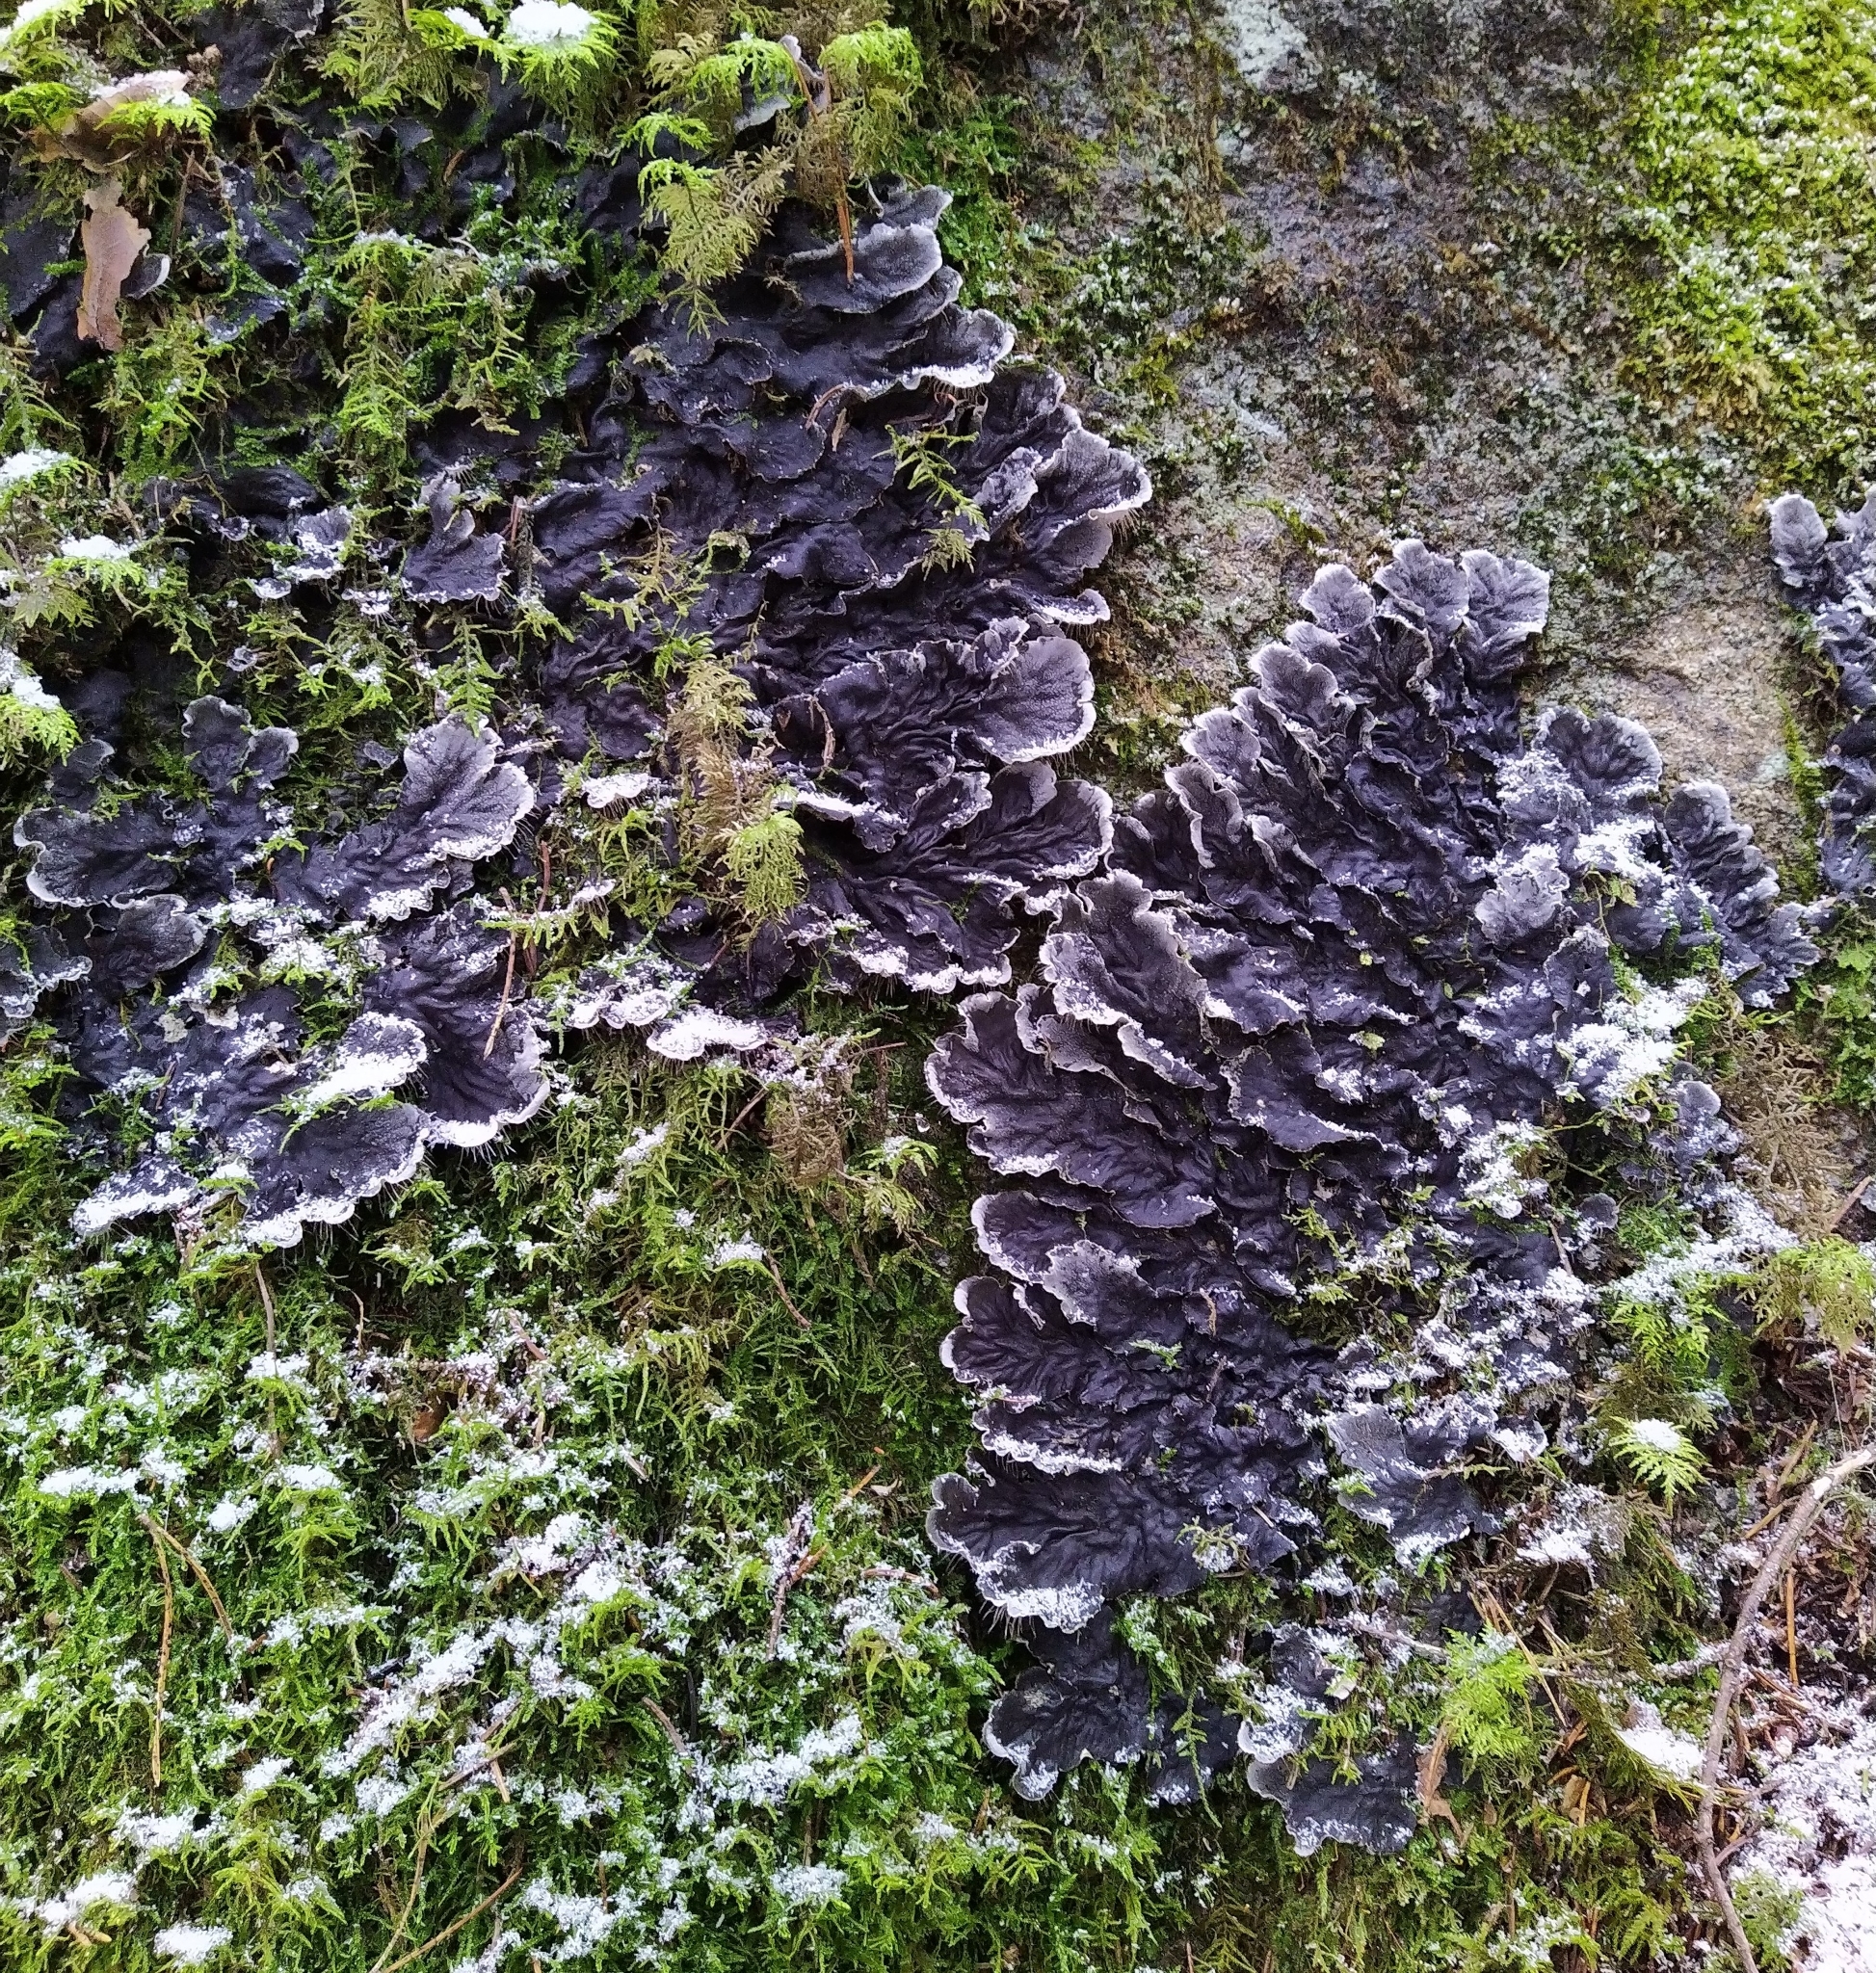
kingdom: Fungi
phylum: Ascomycota
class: Lecanoromycetes
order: Peltigerales
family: Peltigeraceae
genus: Peltigera
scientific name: Peltigera praetextata
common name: Scaly dog-lichen
